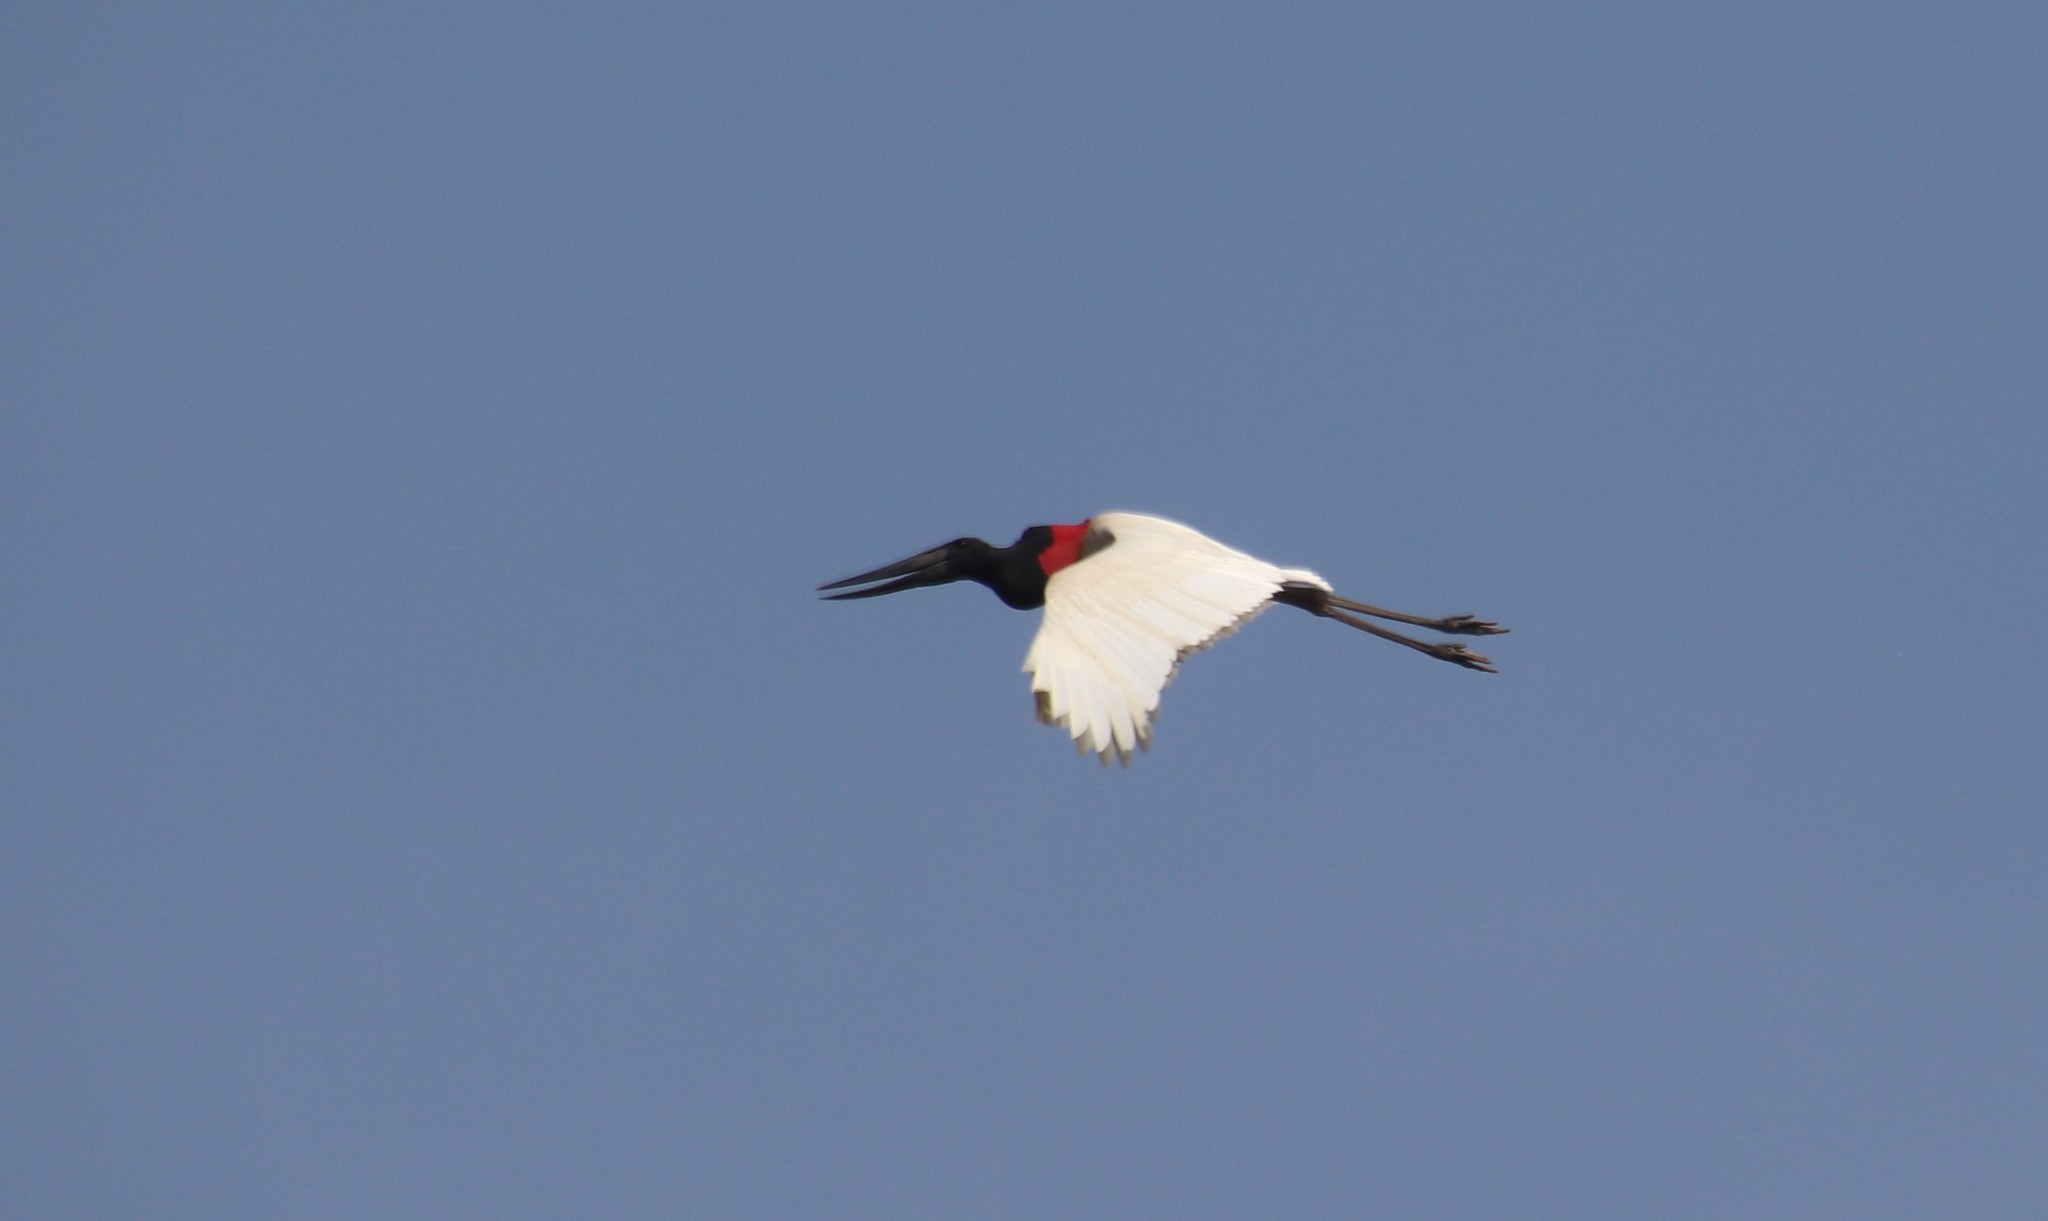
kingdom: Animalia
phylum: Chordata
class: Aves
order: Ciconiiformes
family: Ciconiidae
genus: Jabiru
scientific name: Jabiru mycteria
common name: Jabiru
